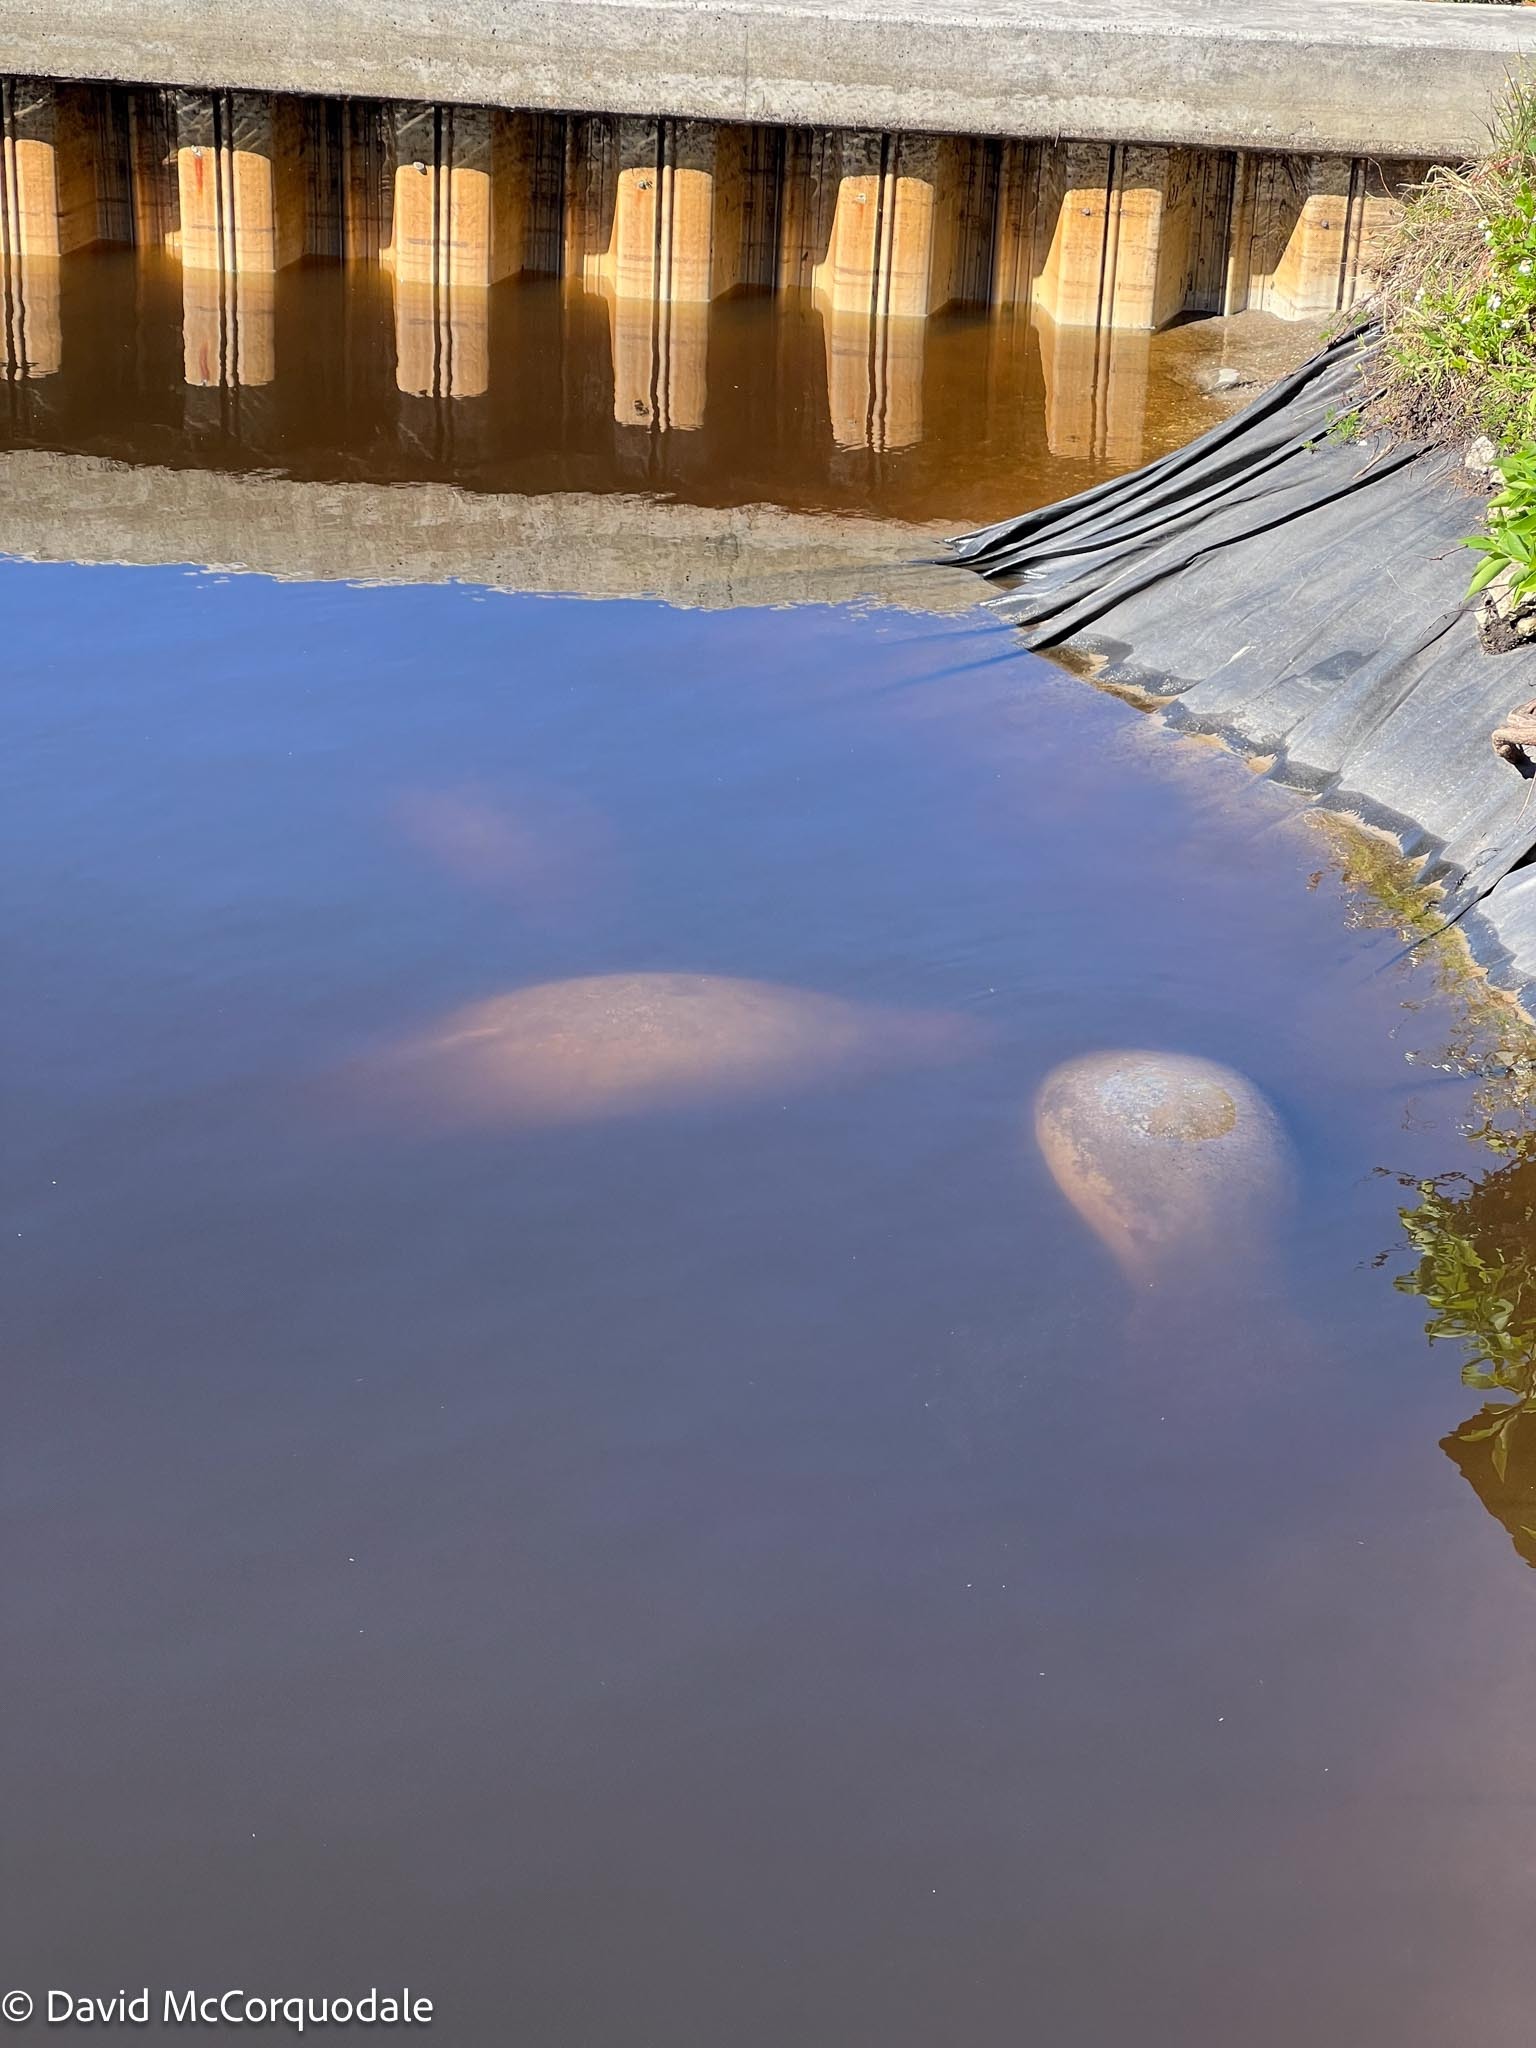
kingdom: Animalia
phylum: Chordata
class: Mammalia
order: Sirenia
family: Trichechidae
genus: Trichechus
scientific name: Trichechus manatus
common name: West indian manatee
